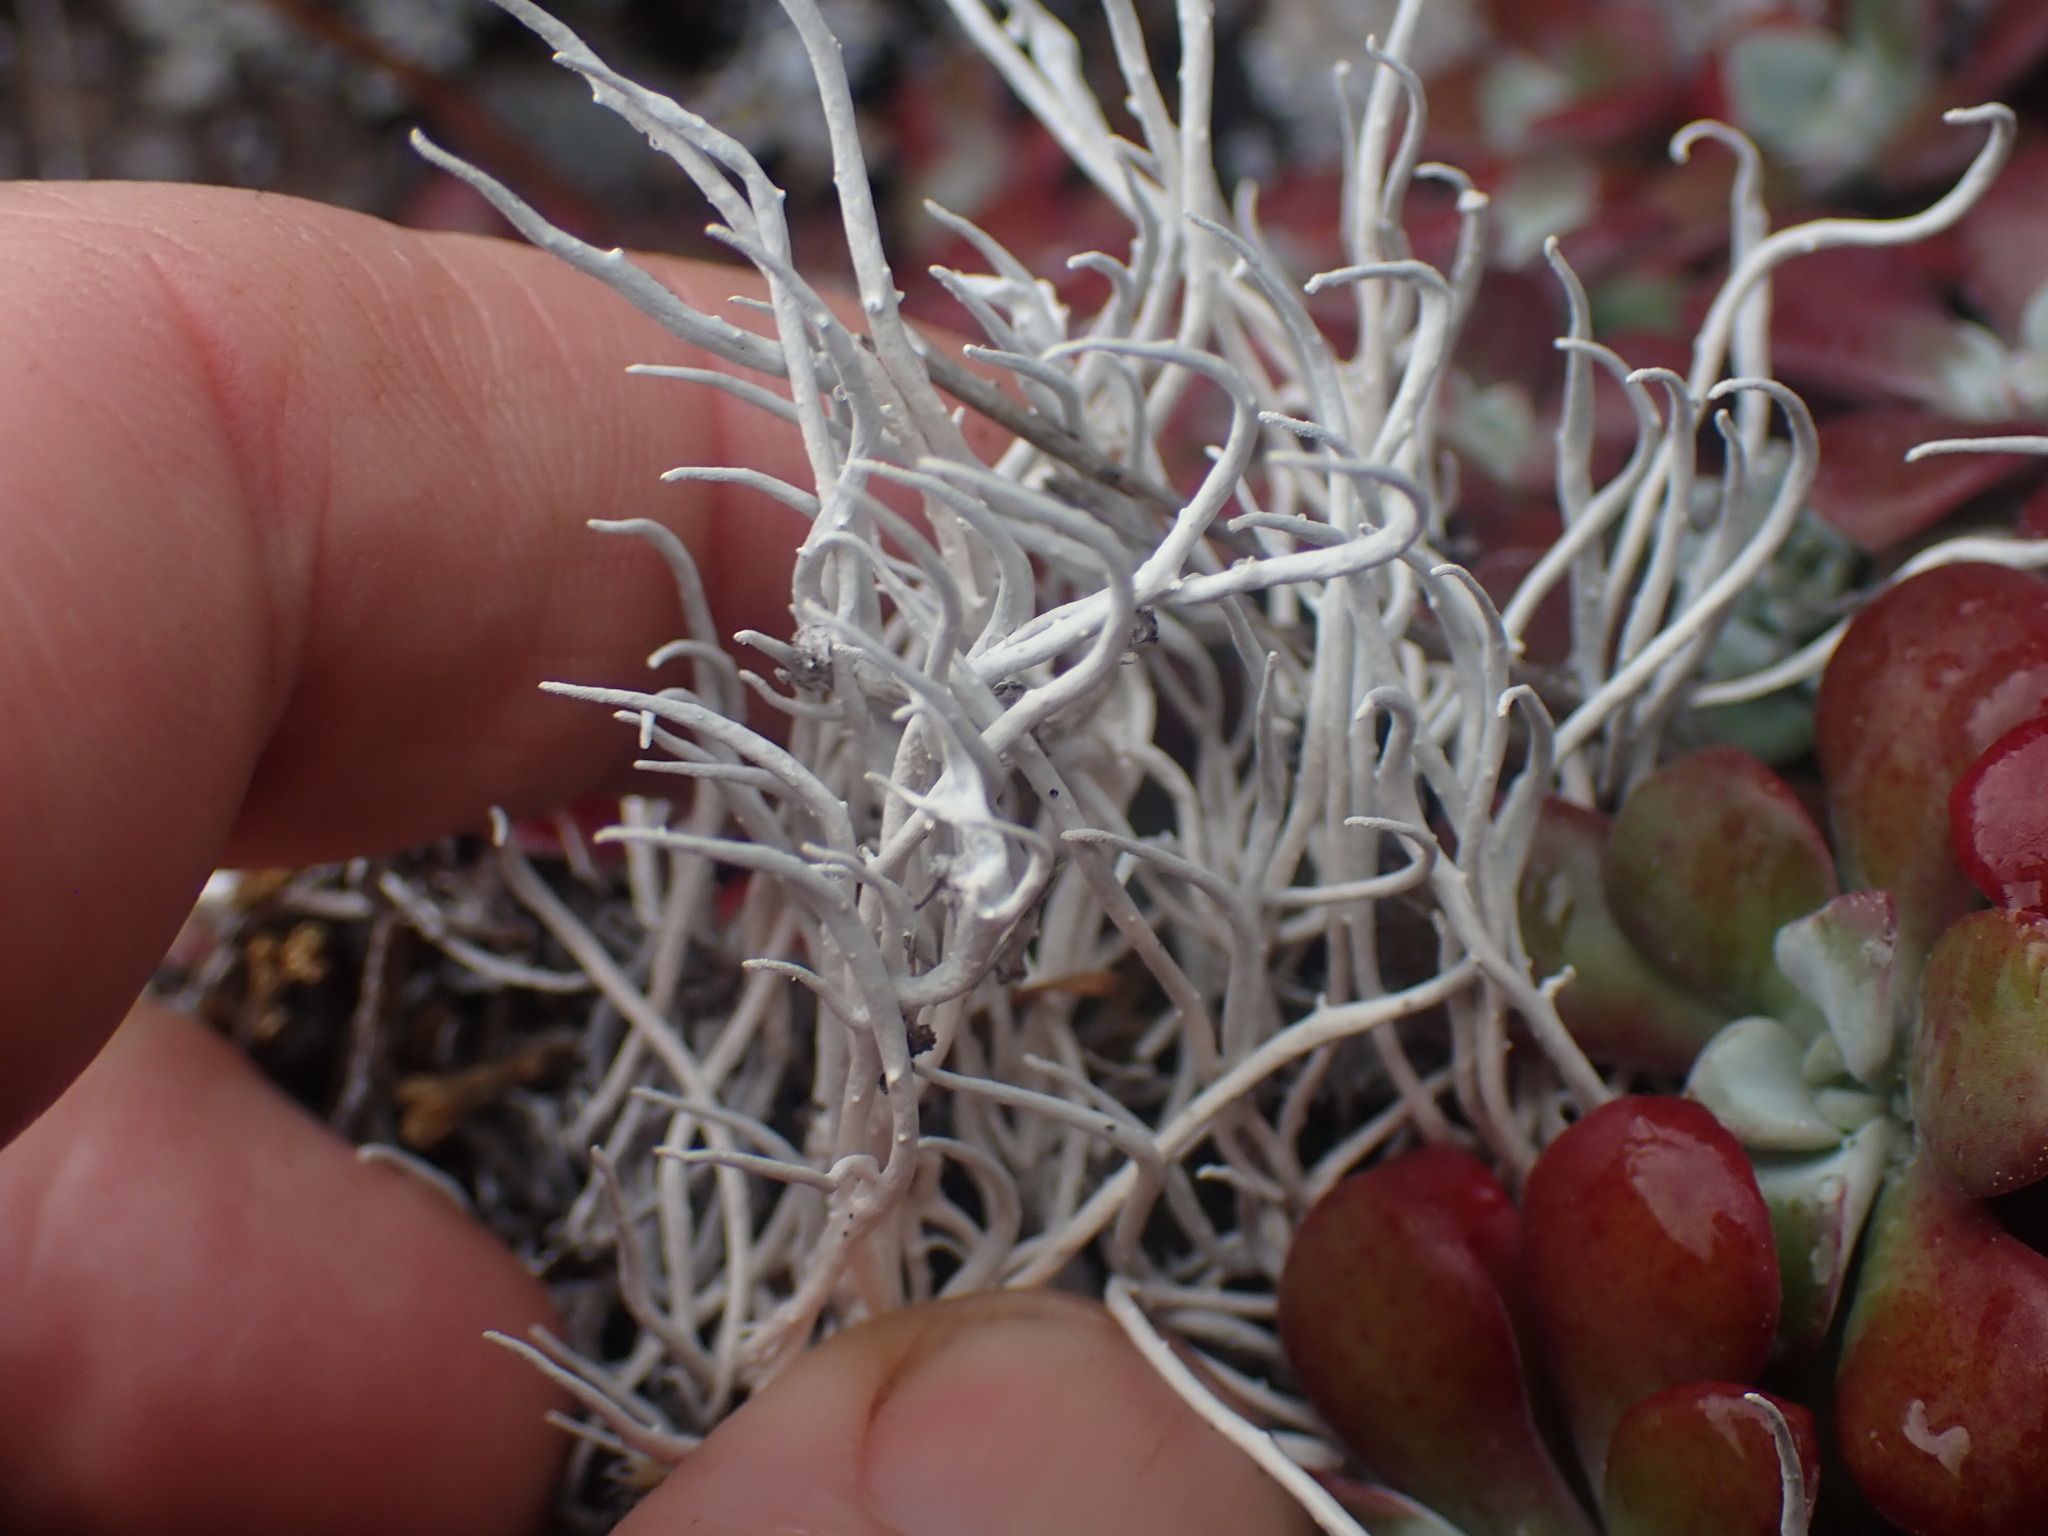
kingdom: Fungi
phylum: Ascomycota
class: Lecanoromycetes
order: Pertusariales
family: Icmadophilaceae
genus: Thamnolia
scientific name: Thamnolia vermicularis
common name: Whiteworm lichen
